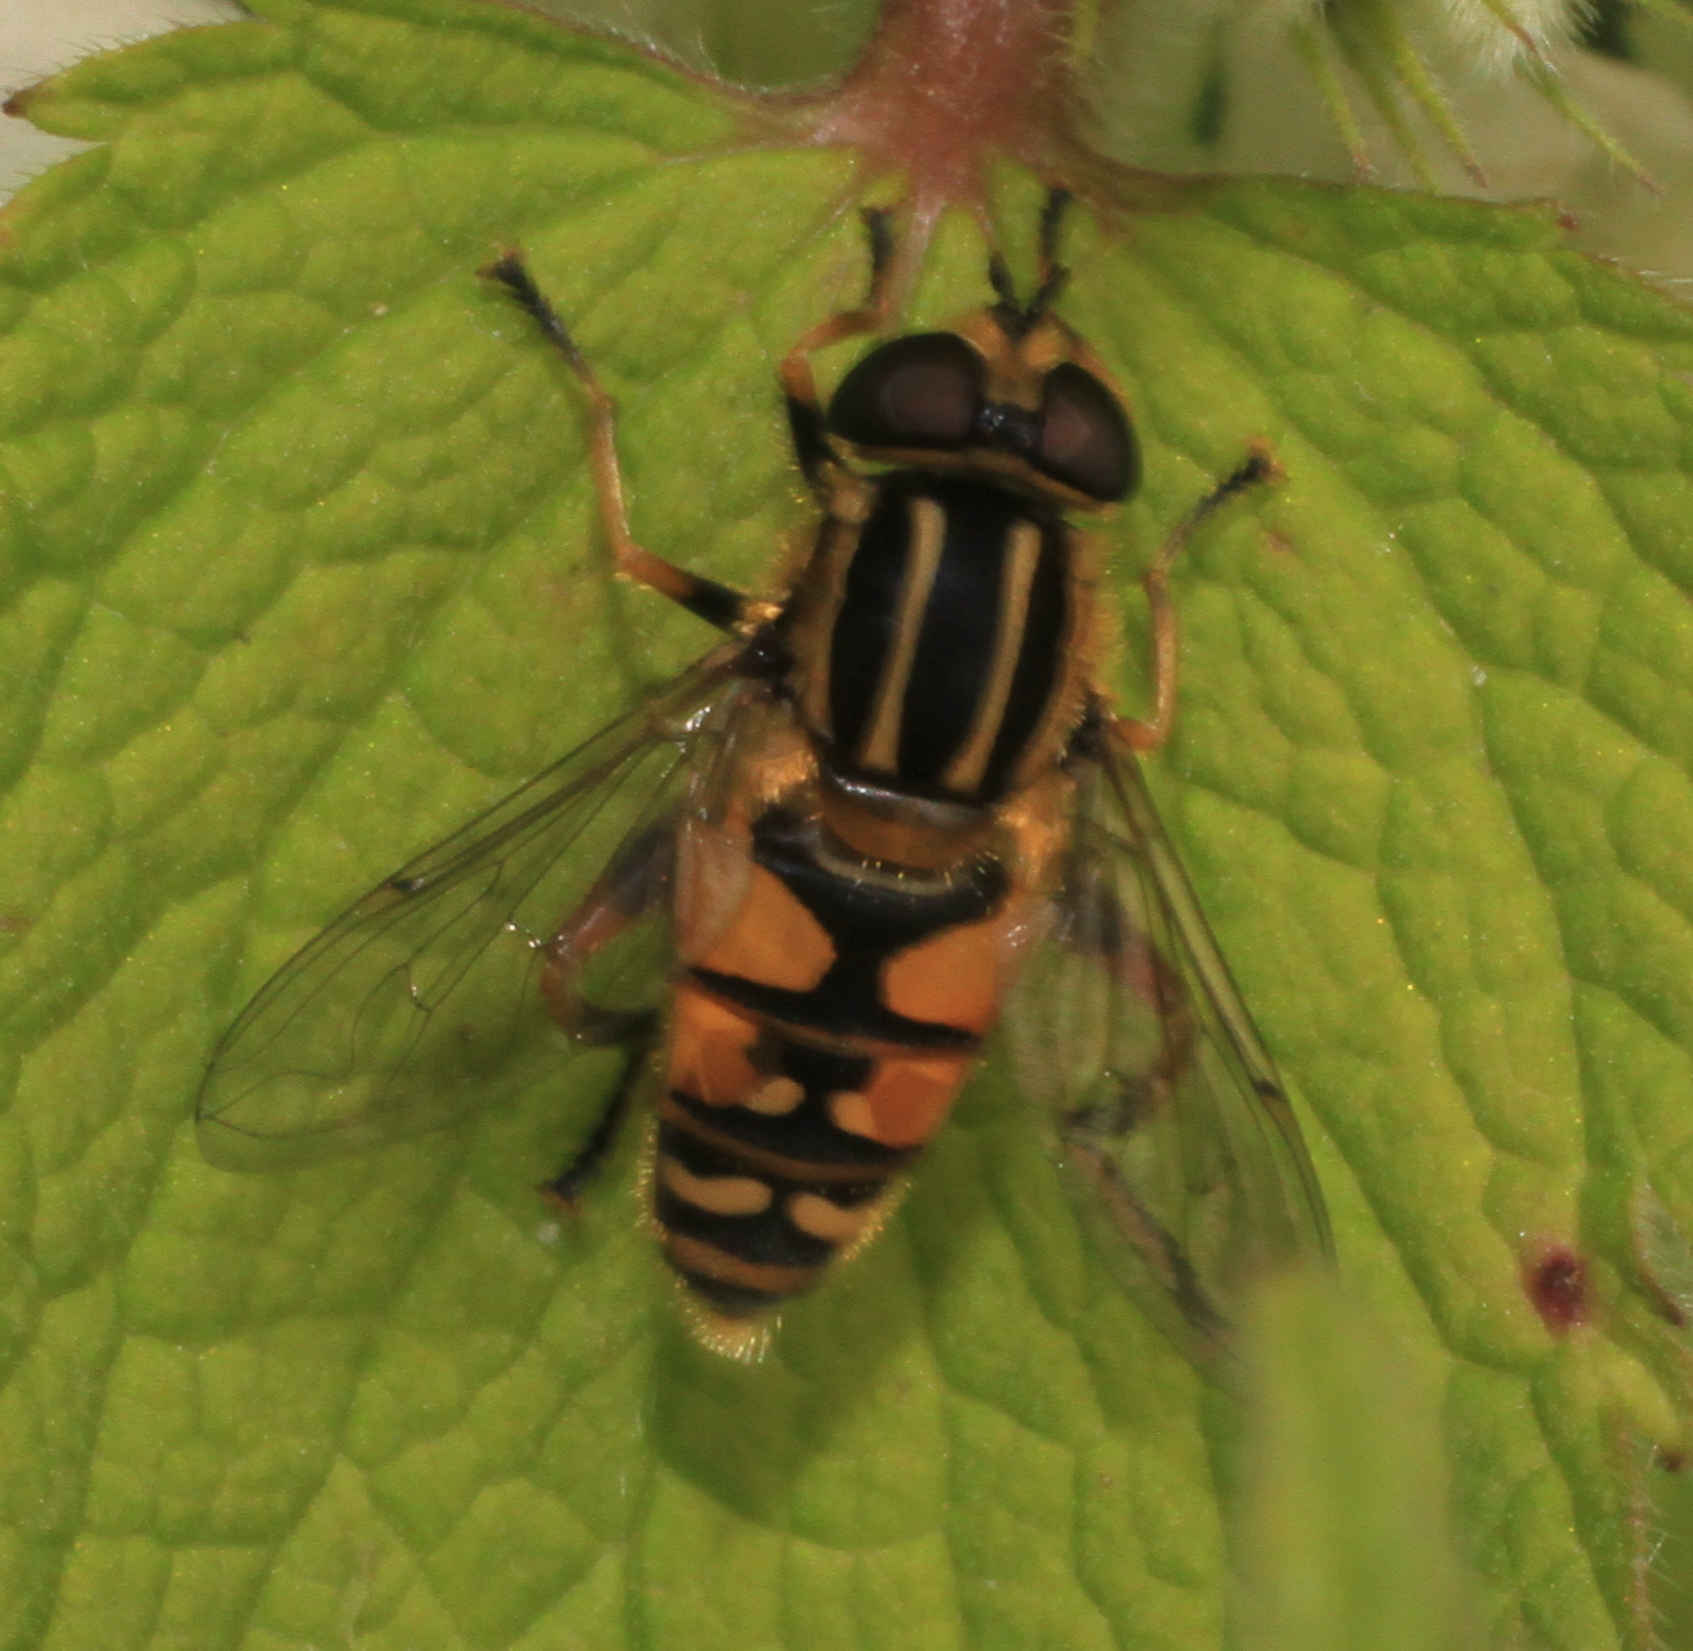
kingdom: Animalia
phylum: Arthropoda
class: Insecta
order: Diptera
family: Syrphidae
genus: Helophilus
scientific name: Helophilus pendulus
